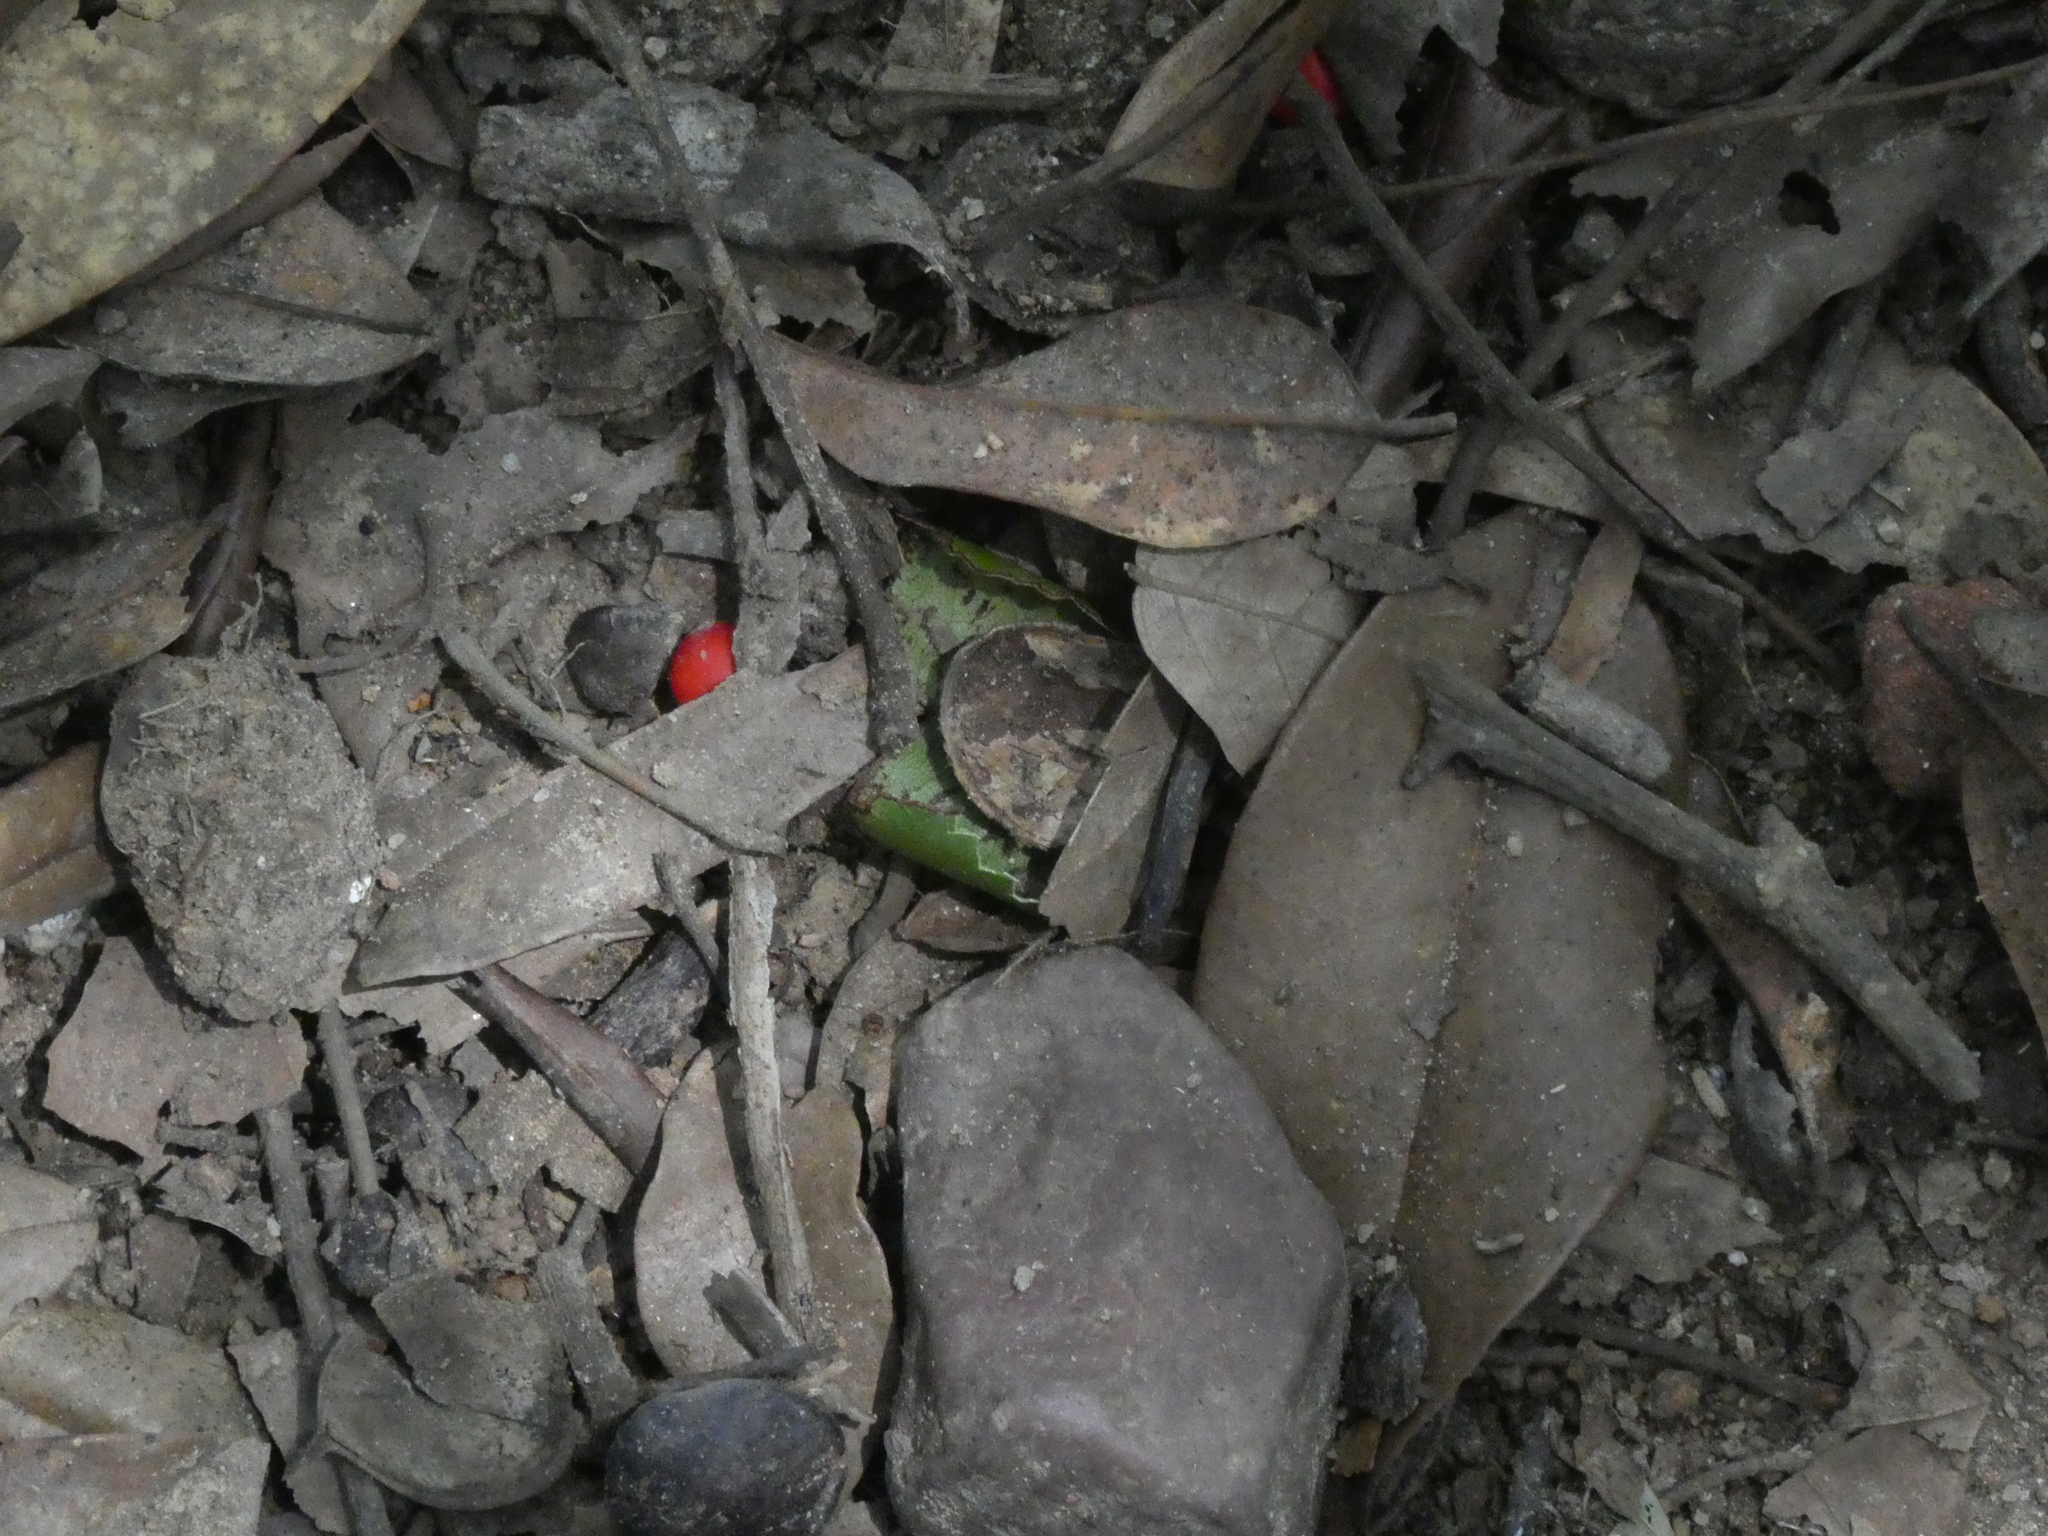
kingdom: Plantae
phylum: Tracheophyta
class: Magnoliopsida
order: Fabales
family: Fabaceae
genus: Ormosia
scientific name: Ormosia semicastrata
